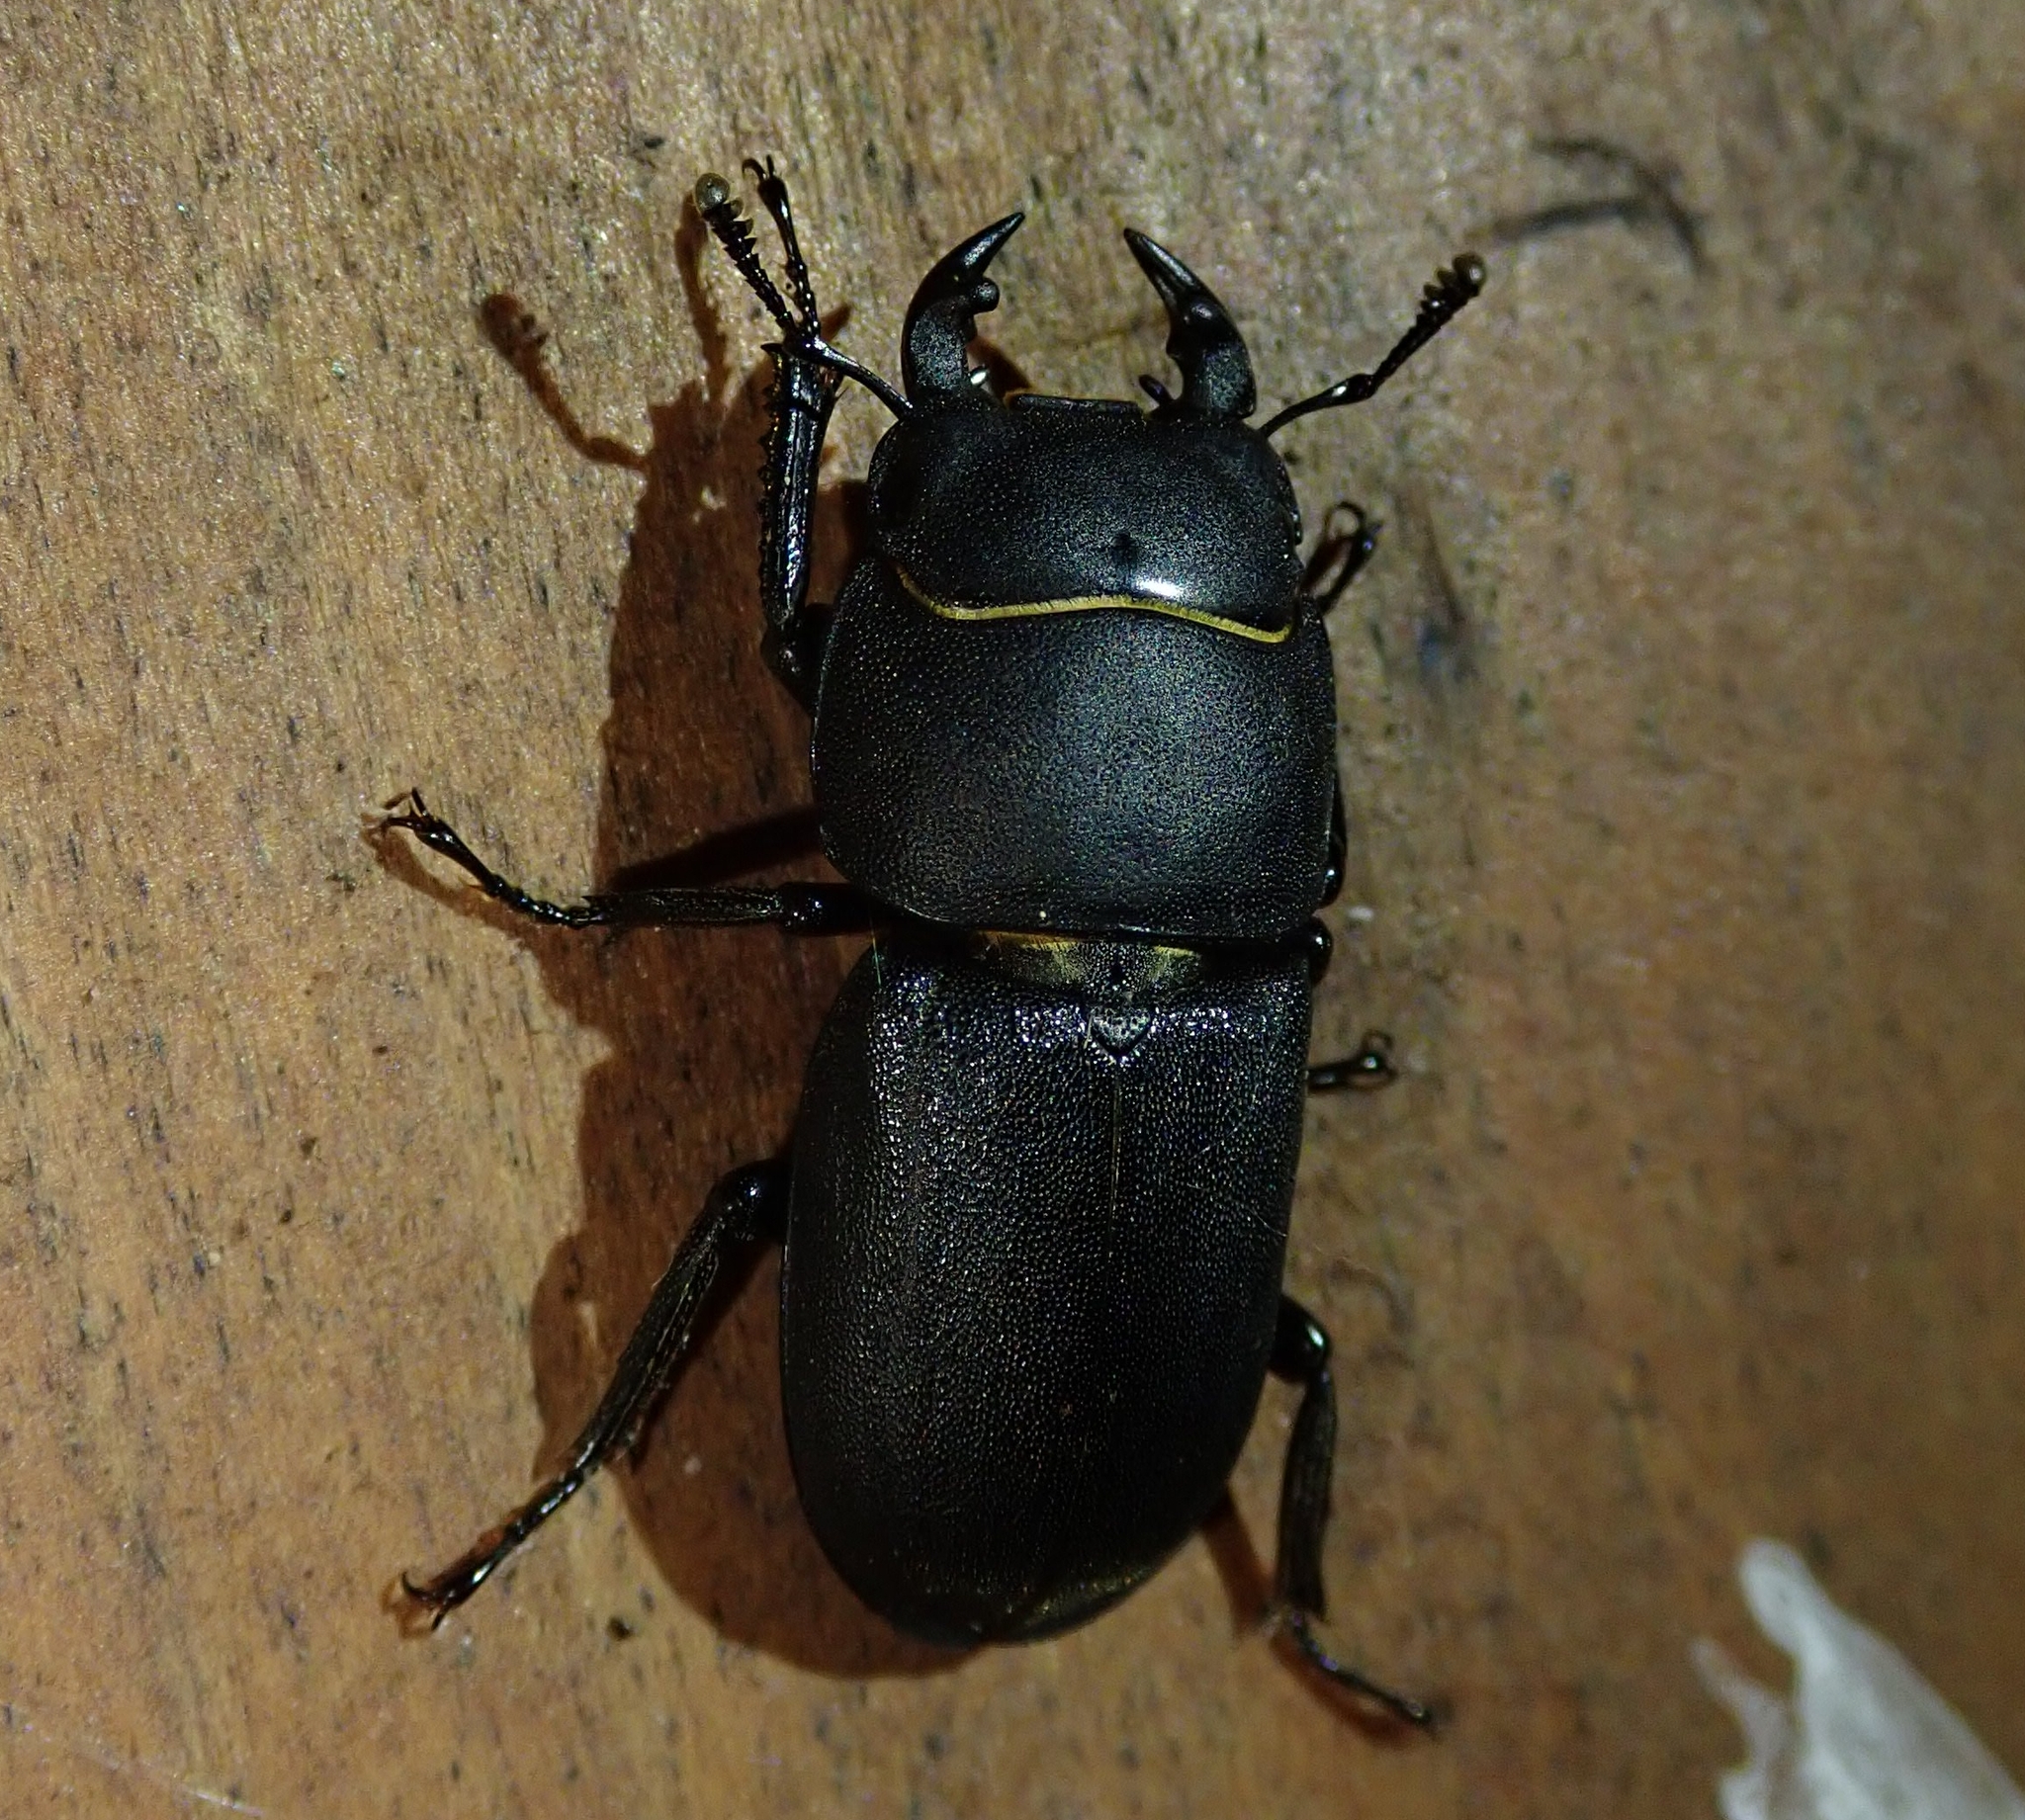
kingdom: Animalia
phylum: Arthropoda
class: Insecta
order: Coleoptera
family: Lucanidae
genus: Dorcus
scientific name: Dorcus parallelipipedus
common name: Lesser stag beetle
